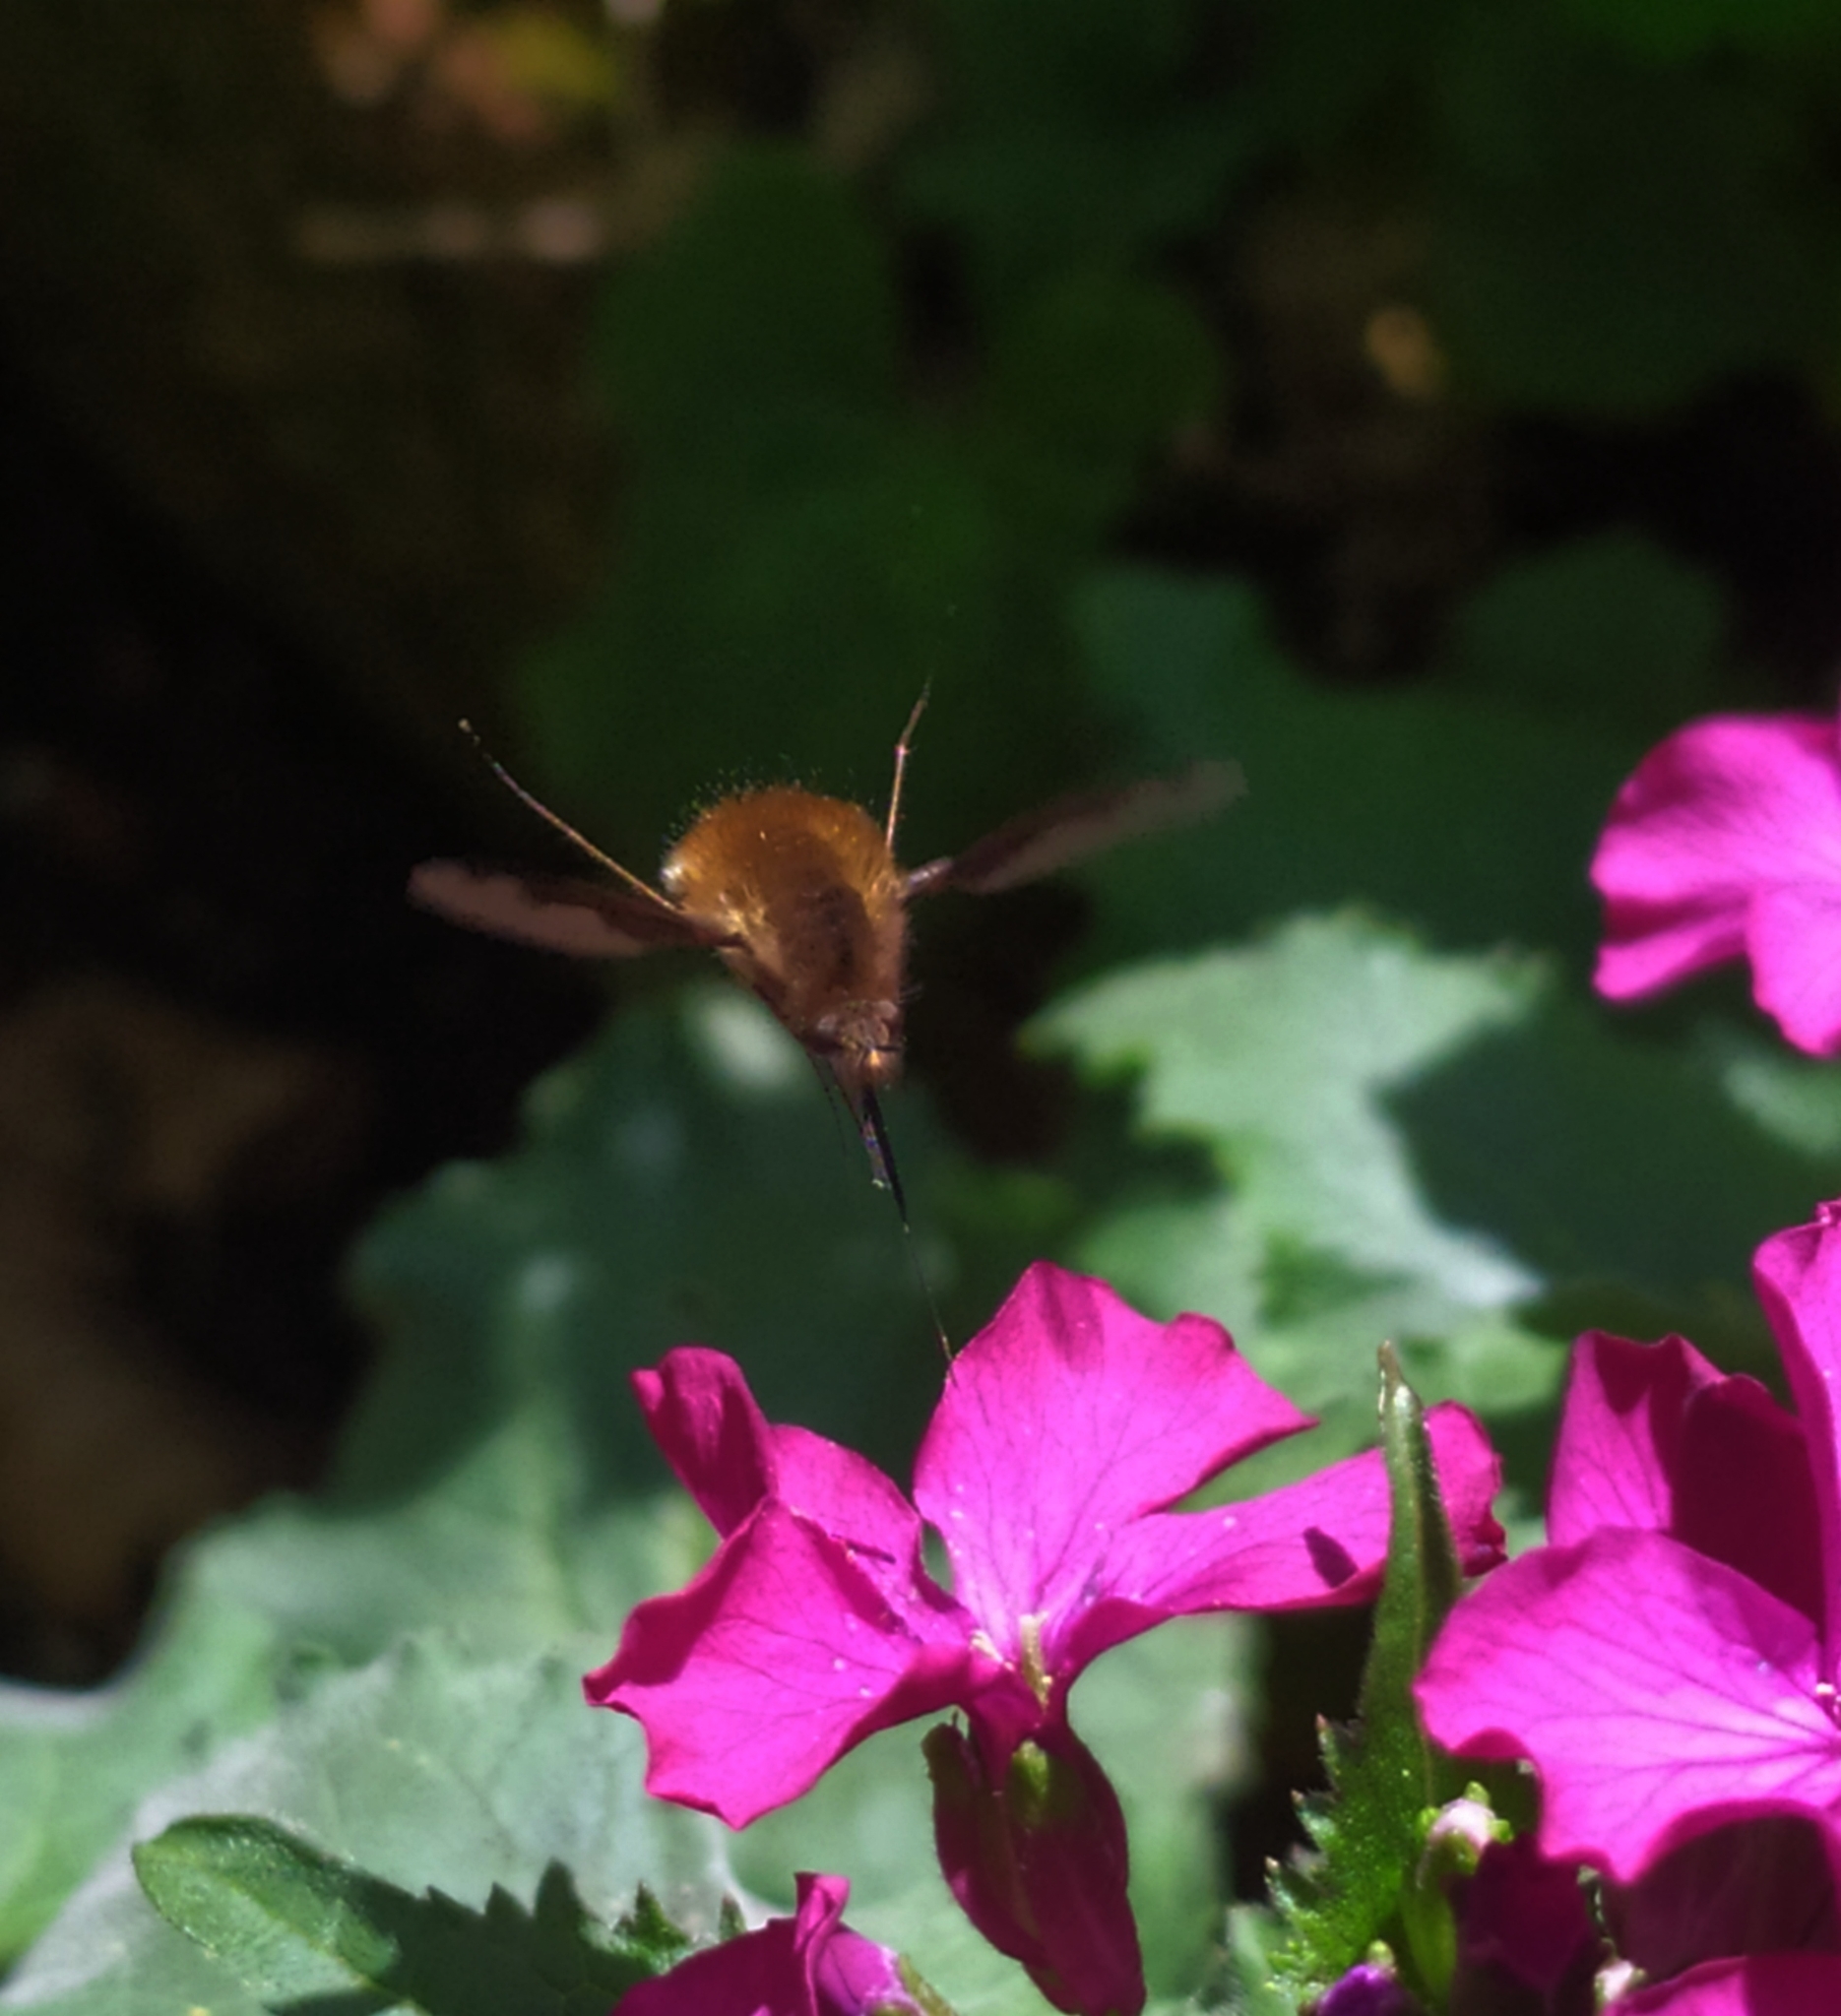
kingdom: Animalia
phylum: Arthropoda
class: Insecta
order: Diptera
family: Bombyliidae
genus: Bombylius
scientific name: Bombylius major
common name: Bee fly
